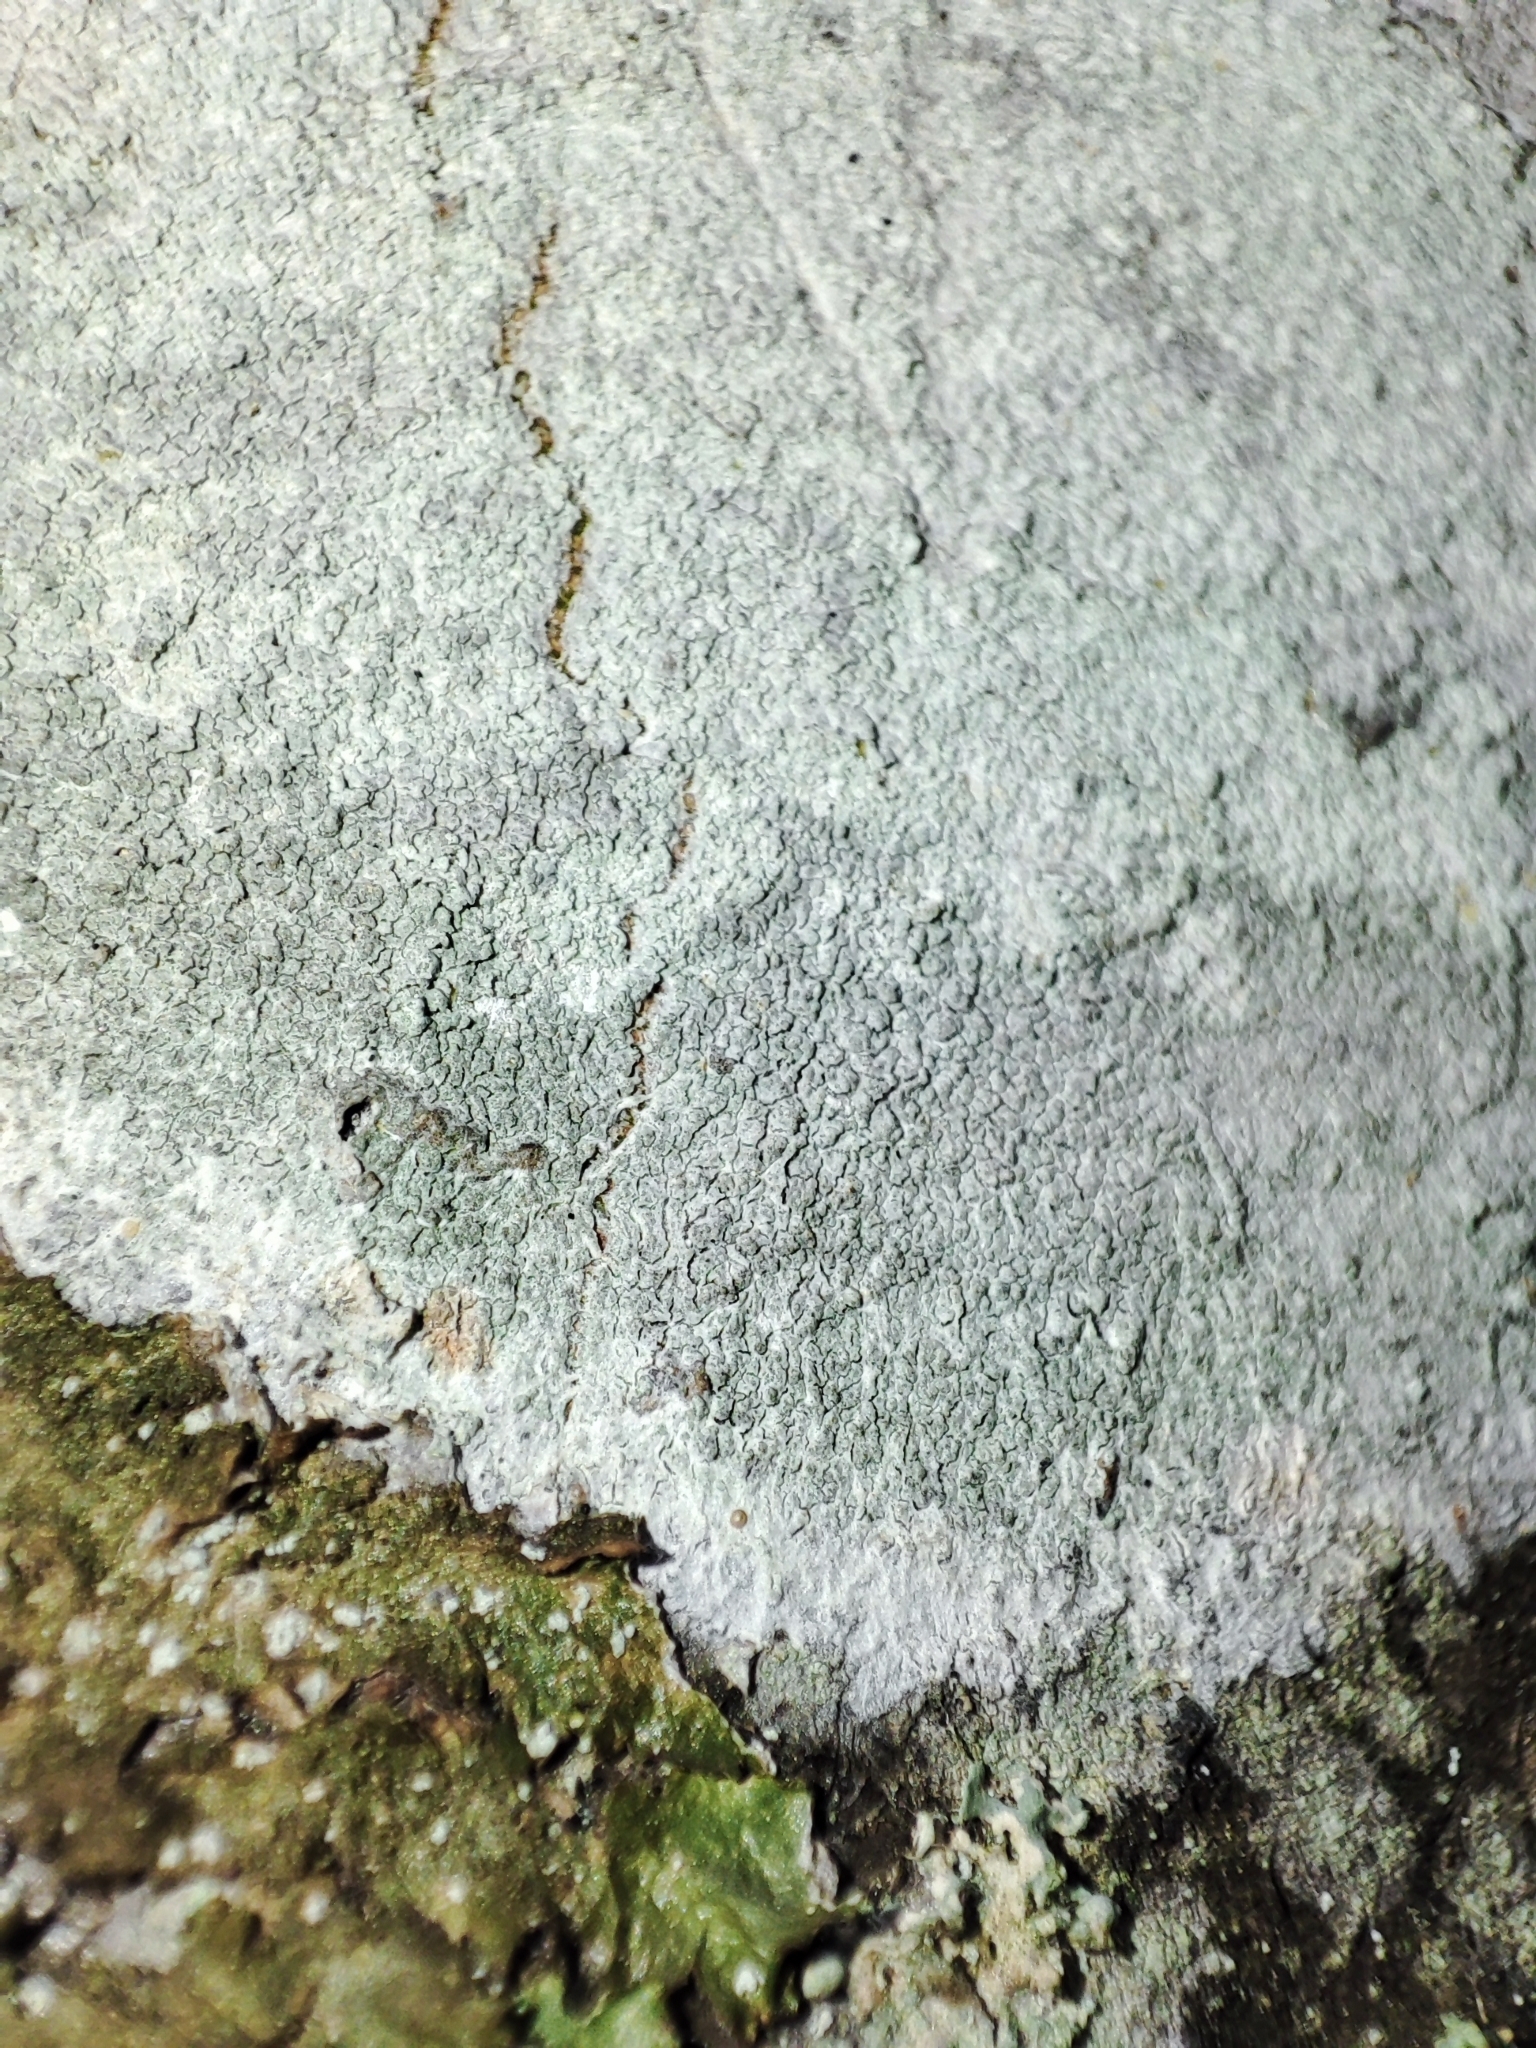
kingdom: Fungi
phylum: Ascomycota
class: Lecanoromycetes
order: Ostropales
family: Phlyctidaceae
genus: Phlyctis
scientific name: Phlyctis argena
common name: Whitewash lichen
